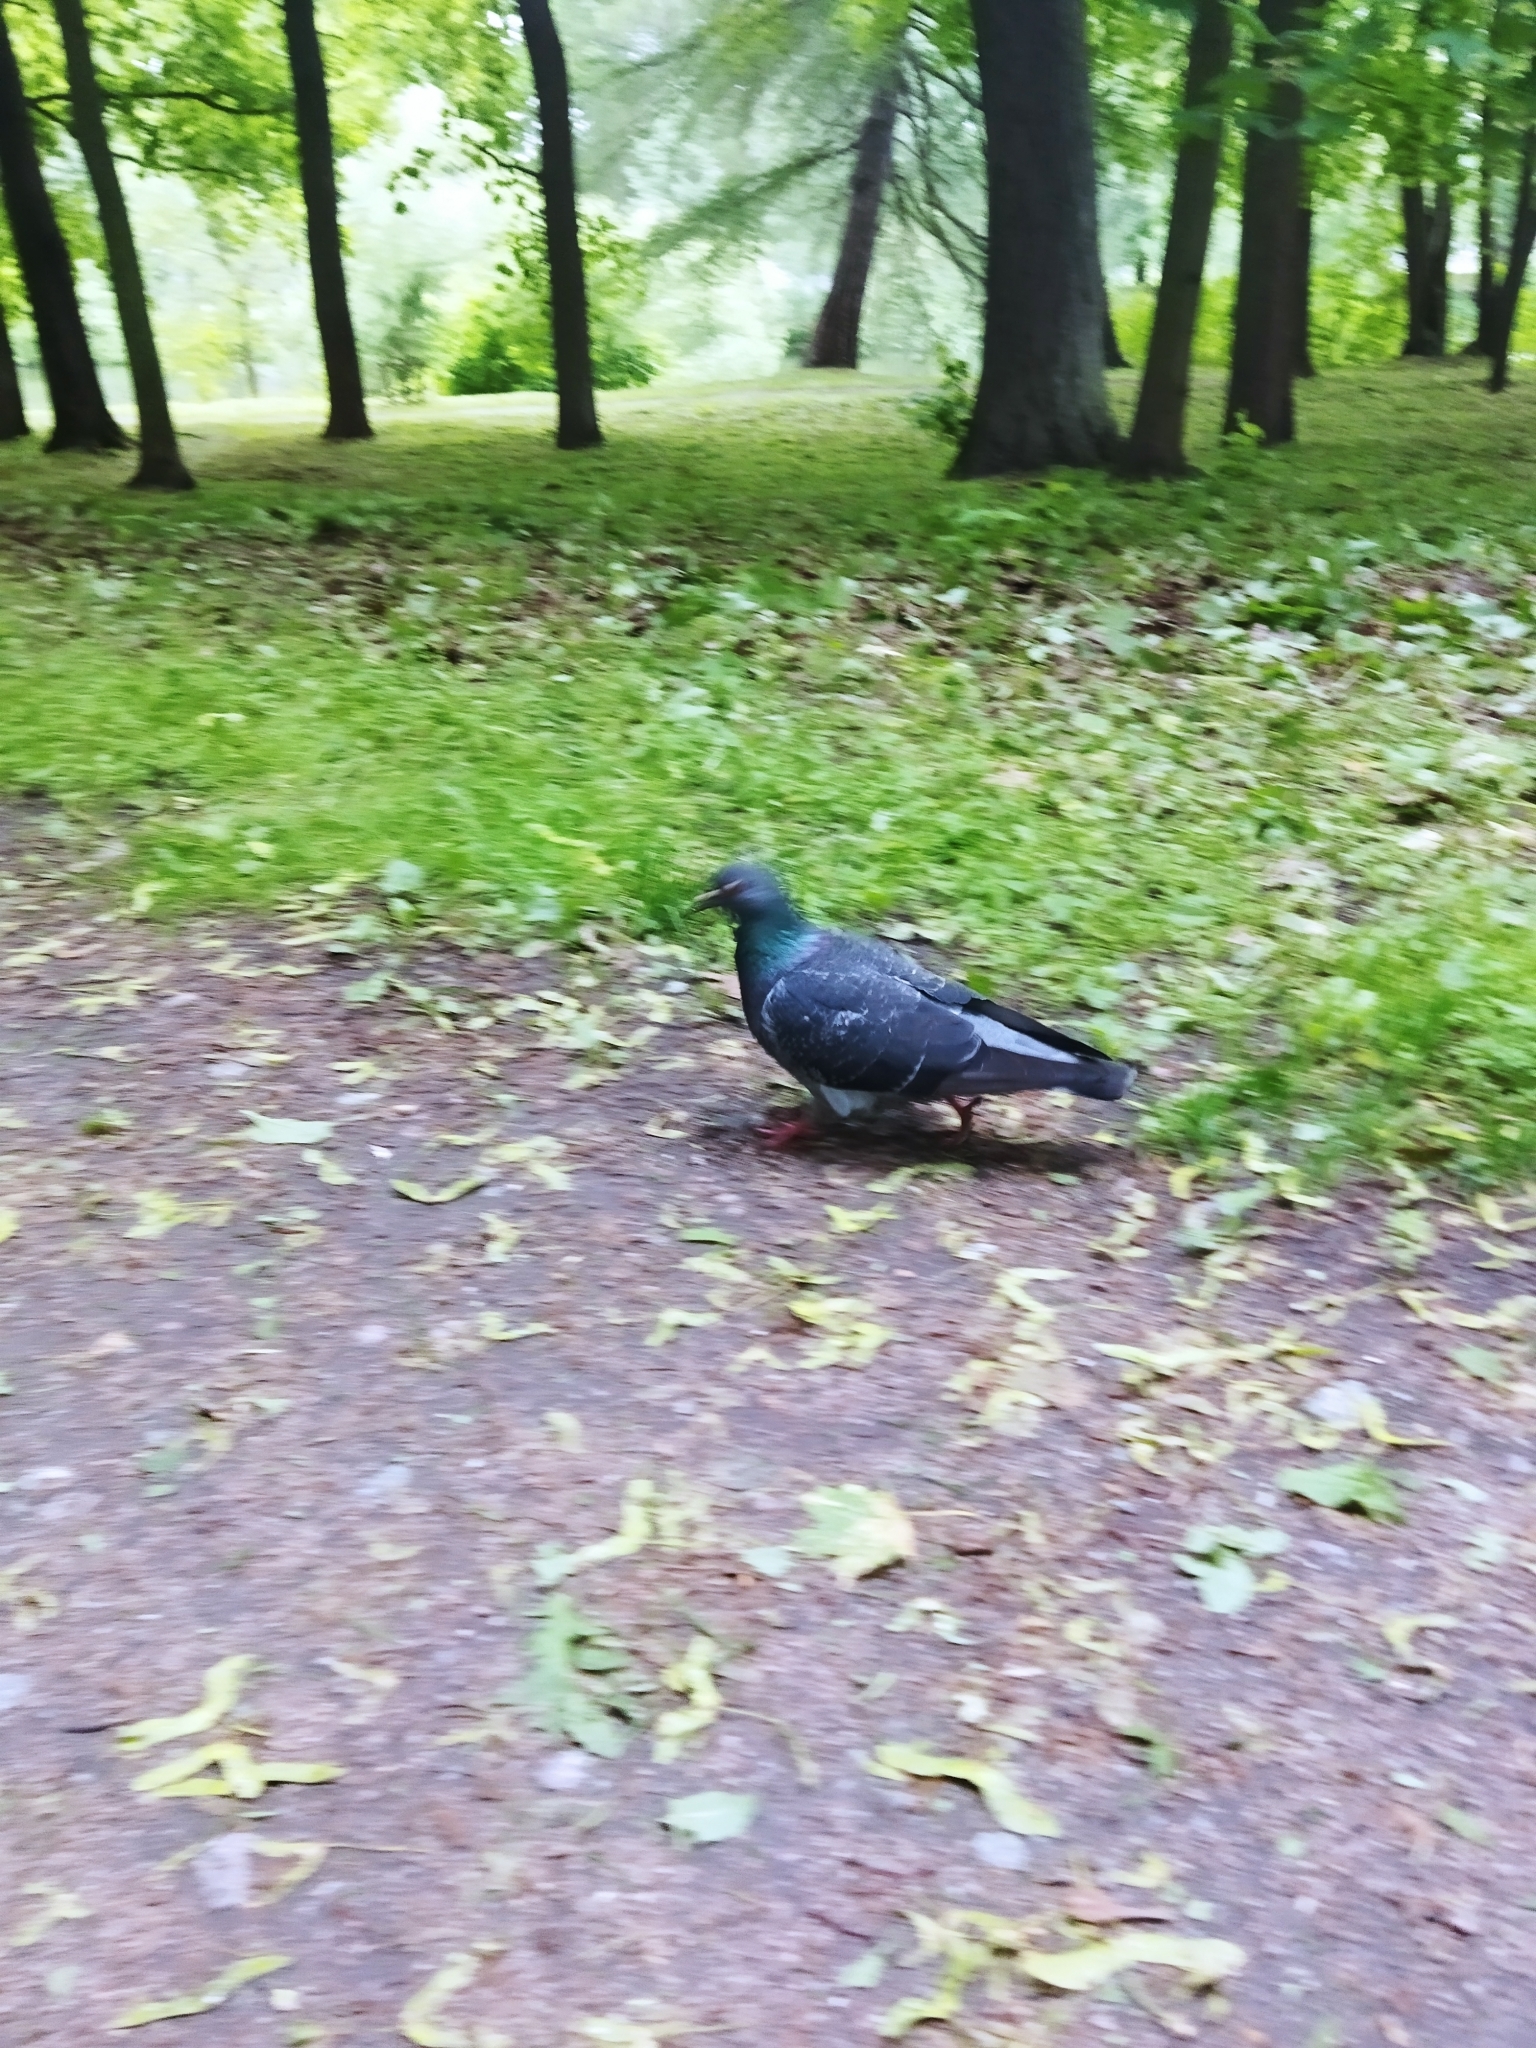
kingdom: Animalia
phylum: Chordata
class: Aves
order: Columbiformes
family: Columbidae
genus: Columba
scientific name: Columba livia
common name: Rock pigeon
